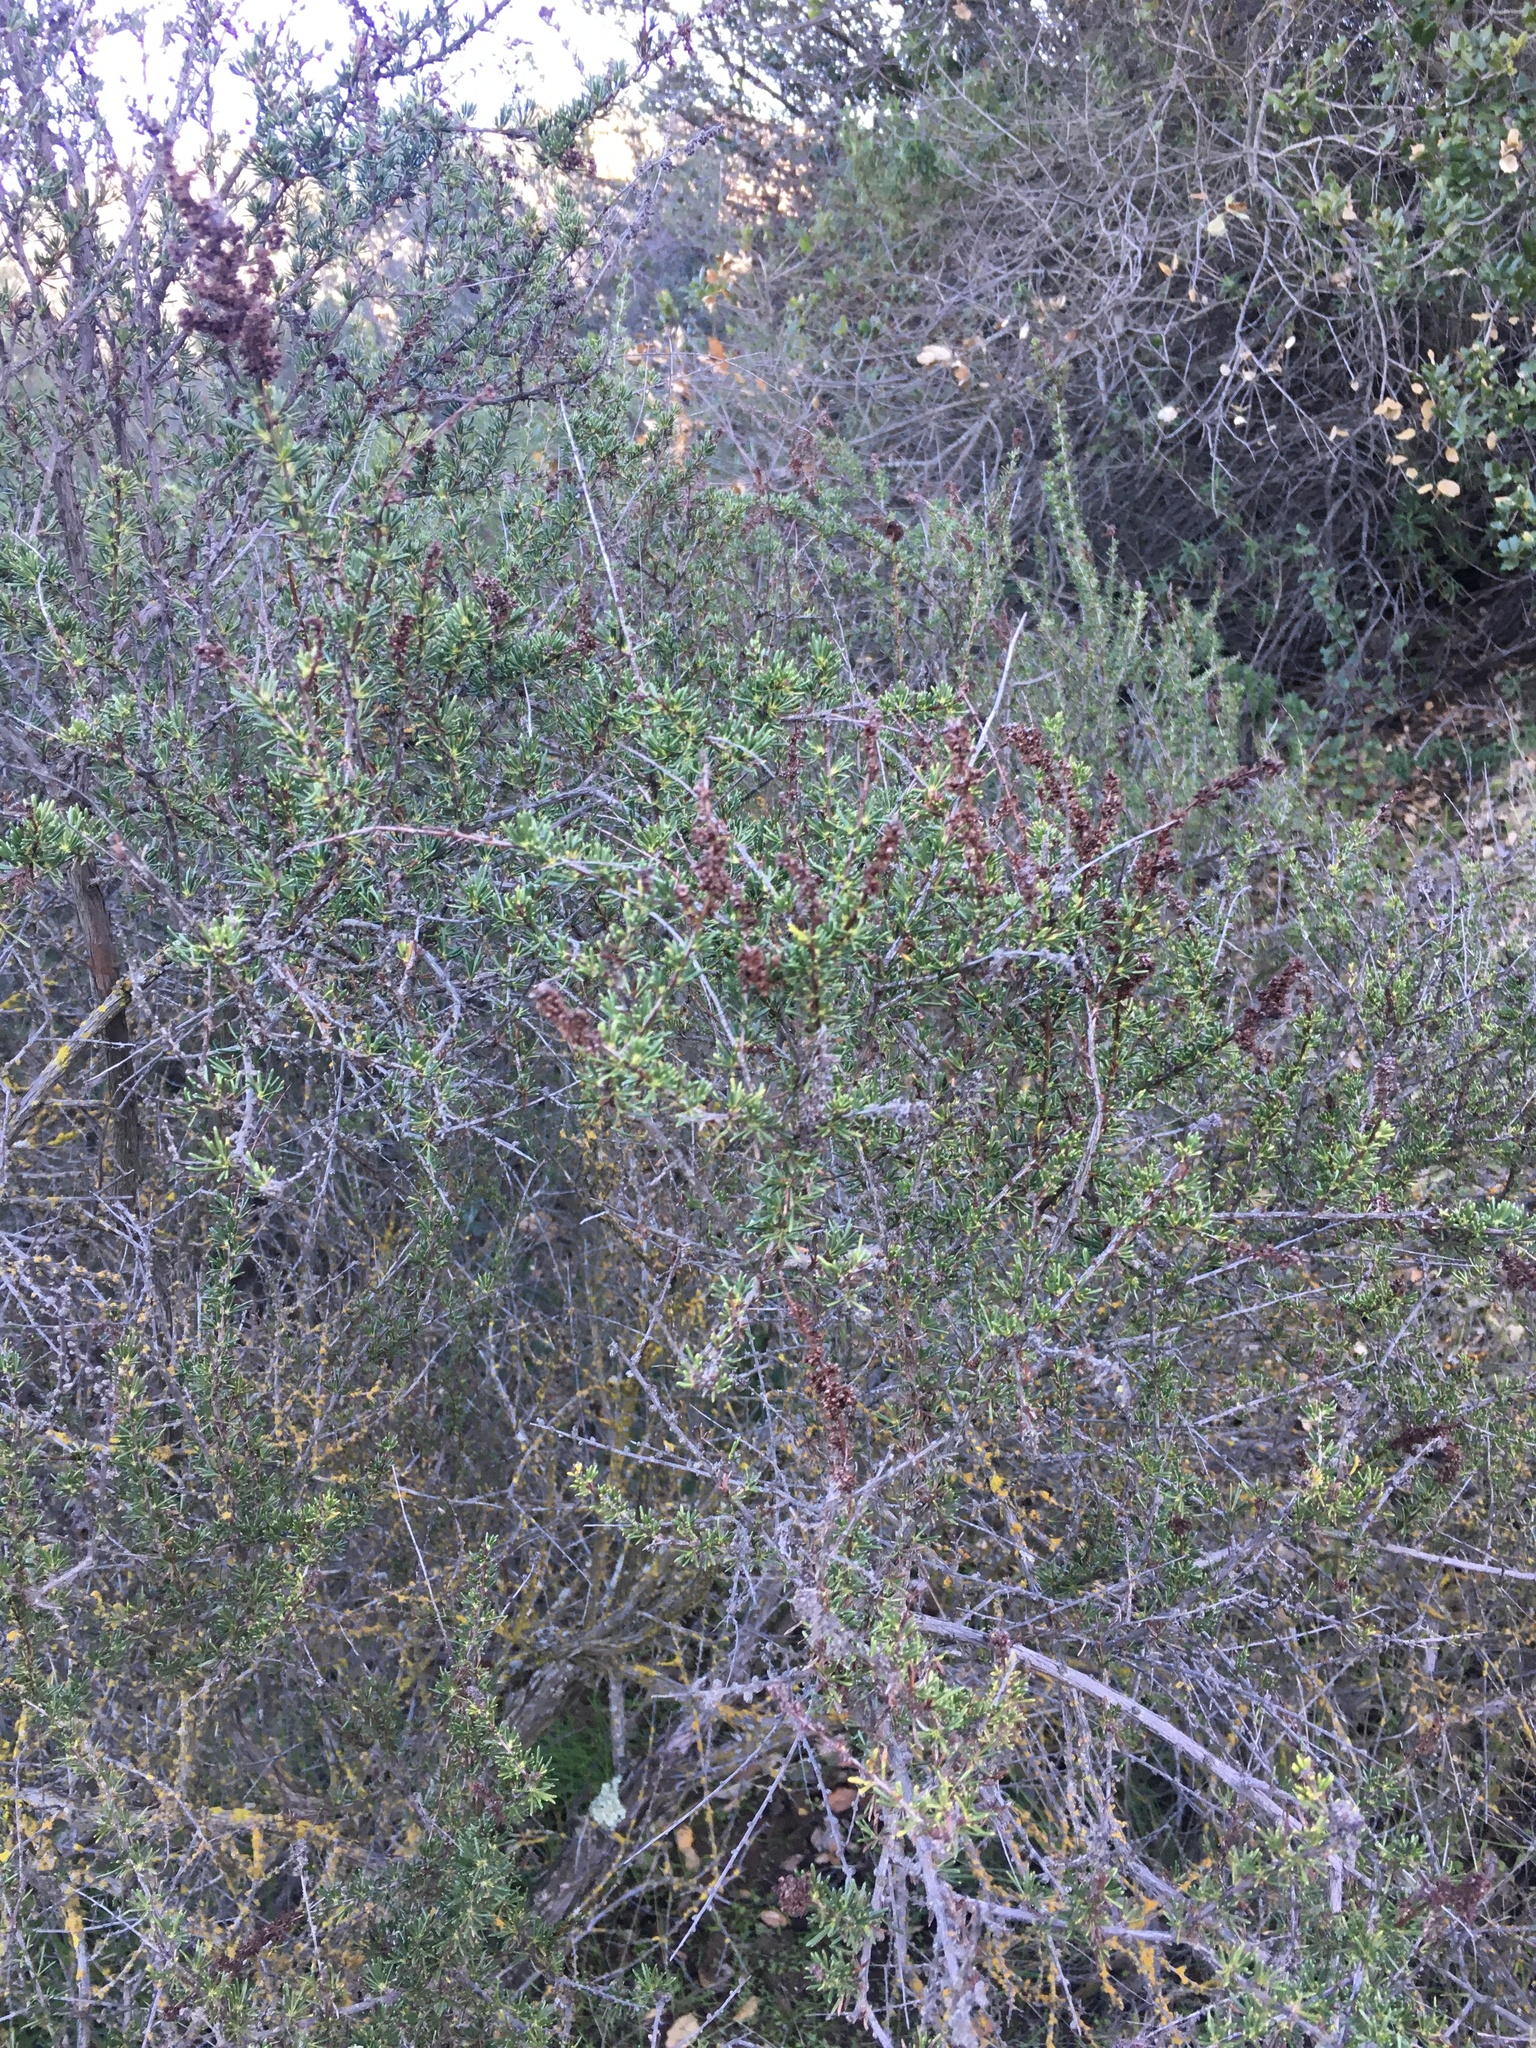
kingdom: Plantae
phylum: Tracheophyta
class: Magnoliopsida
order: Rosales
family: Rosaceae
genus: Adenostoma
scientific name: Adenostoma fasciculatum
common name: Chamise
